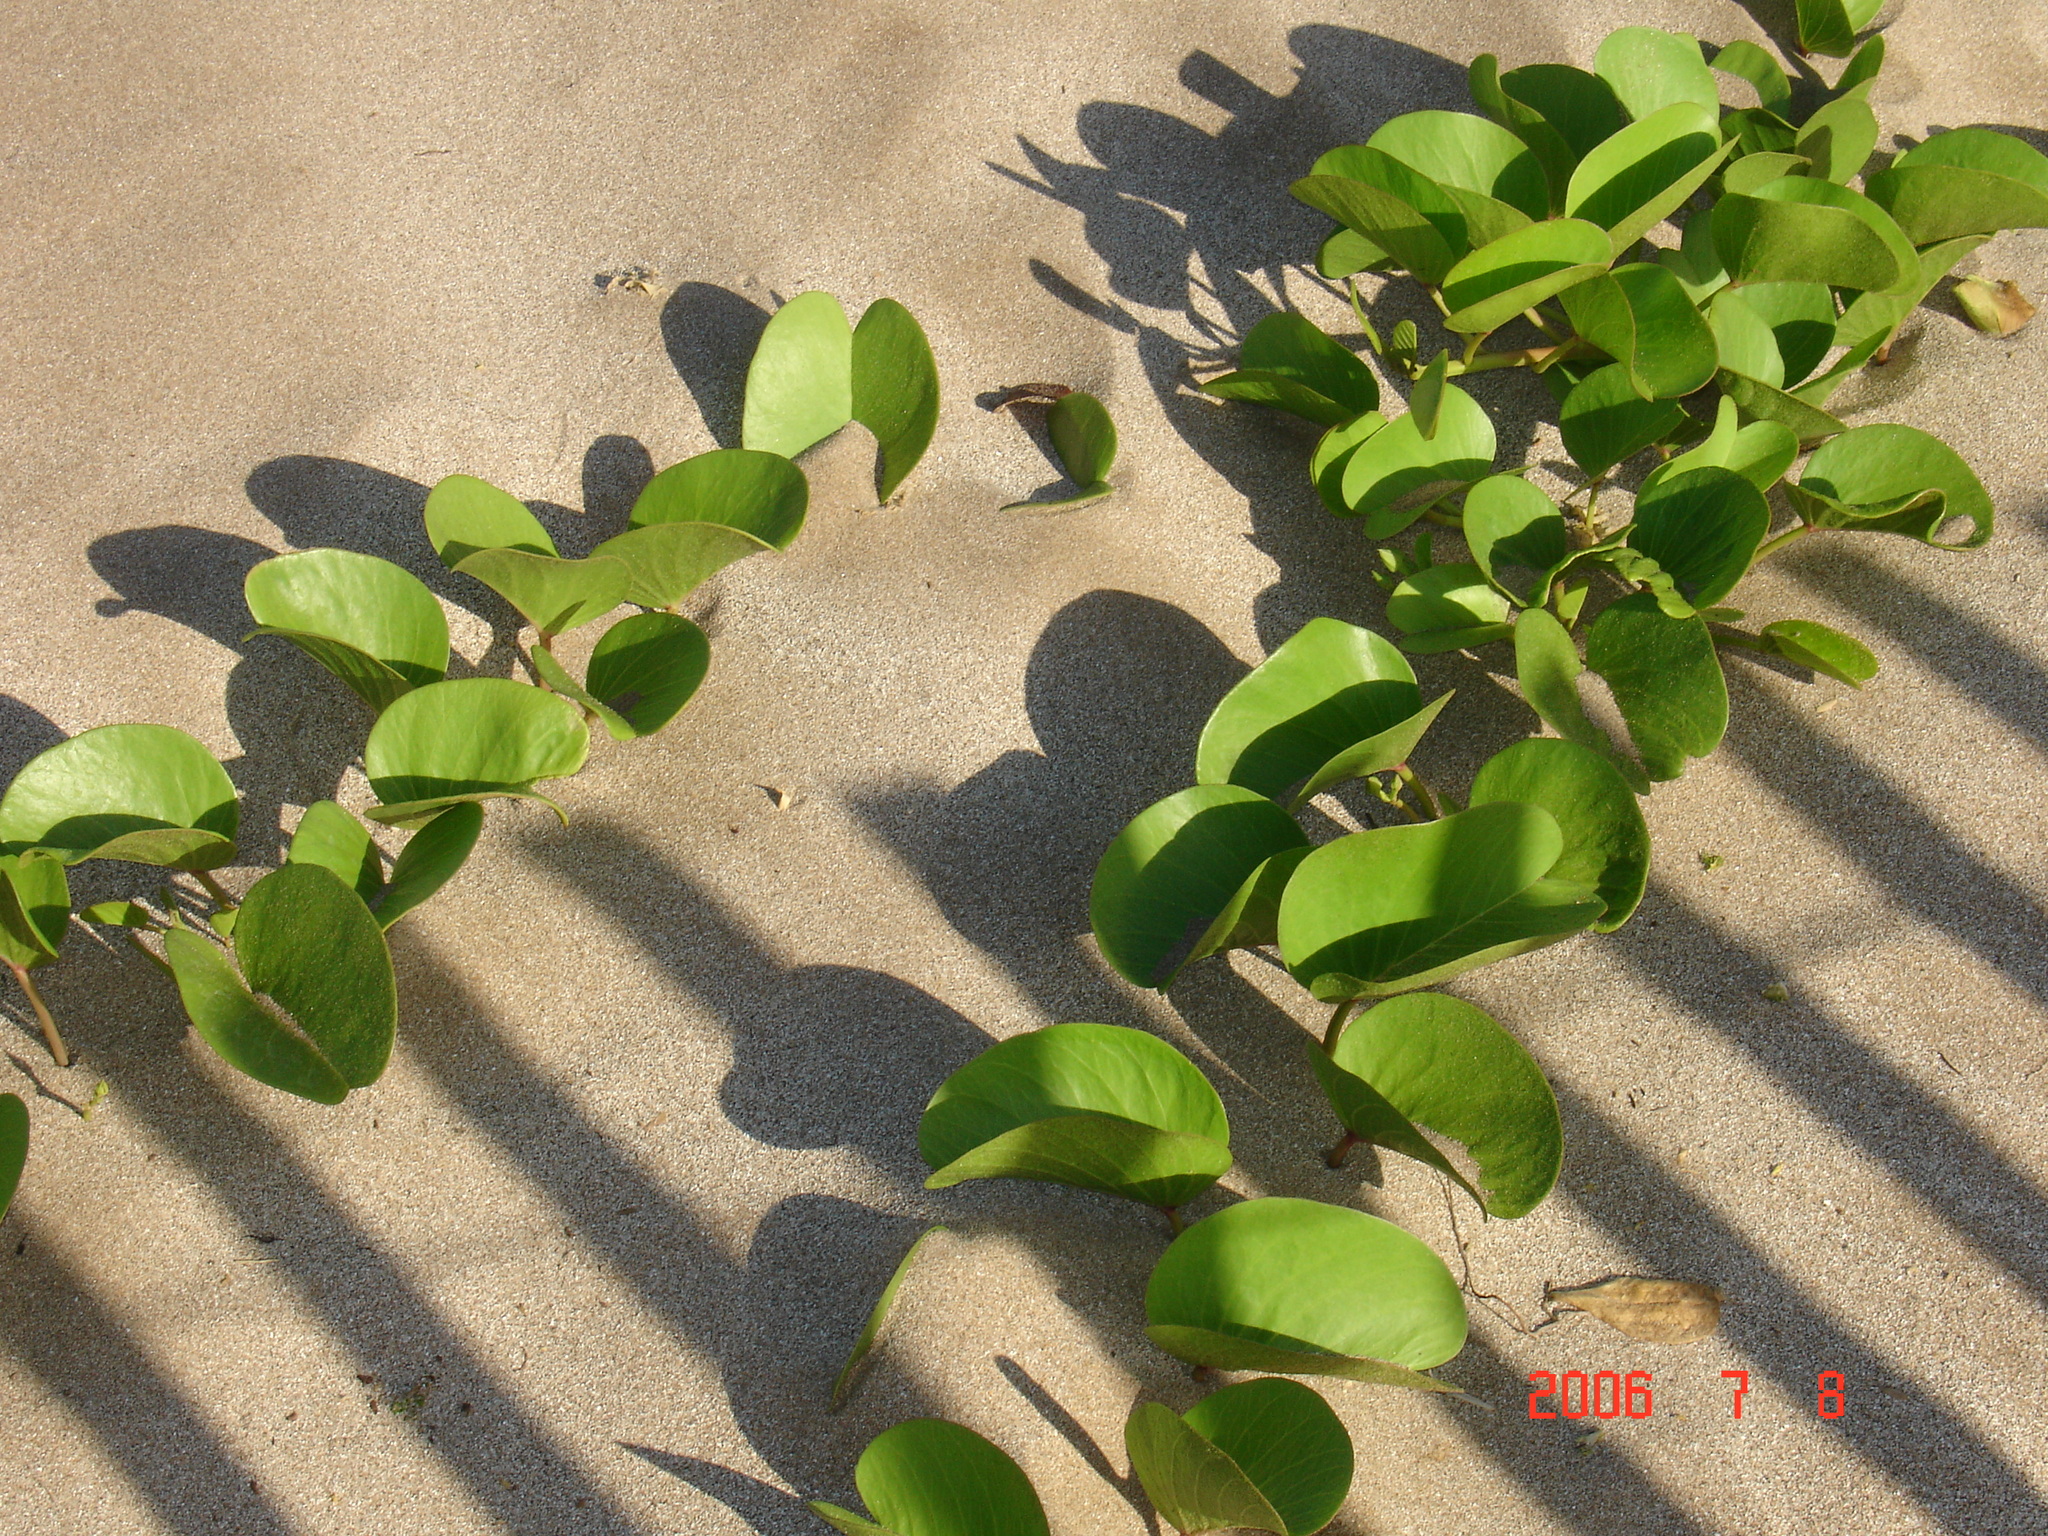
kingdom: Plantae
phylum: Tracheophyta
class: Magnoliopsida
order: Solanales
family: Convolvulaceae
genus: Ipomoea
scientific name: Ipomoea pes-caprae
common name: Beach morning glory
